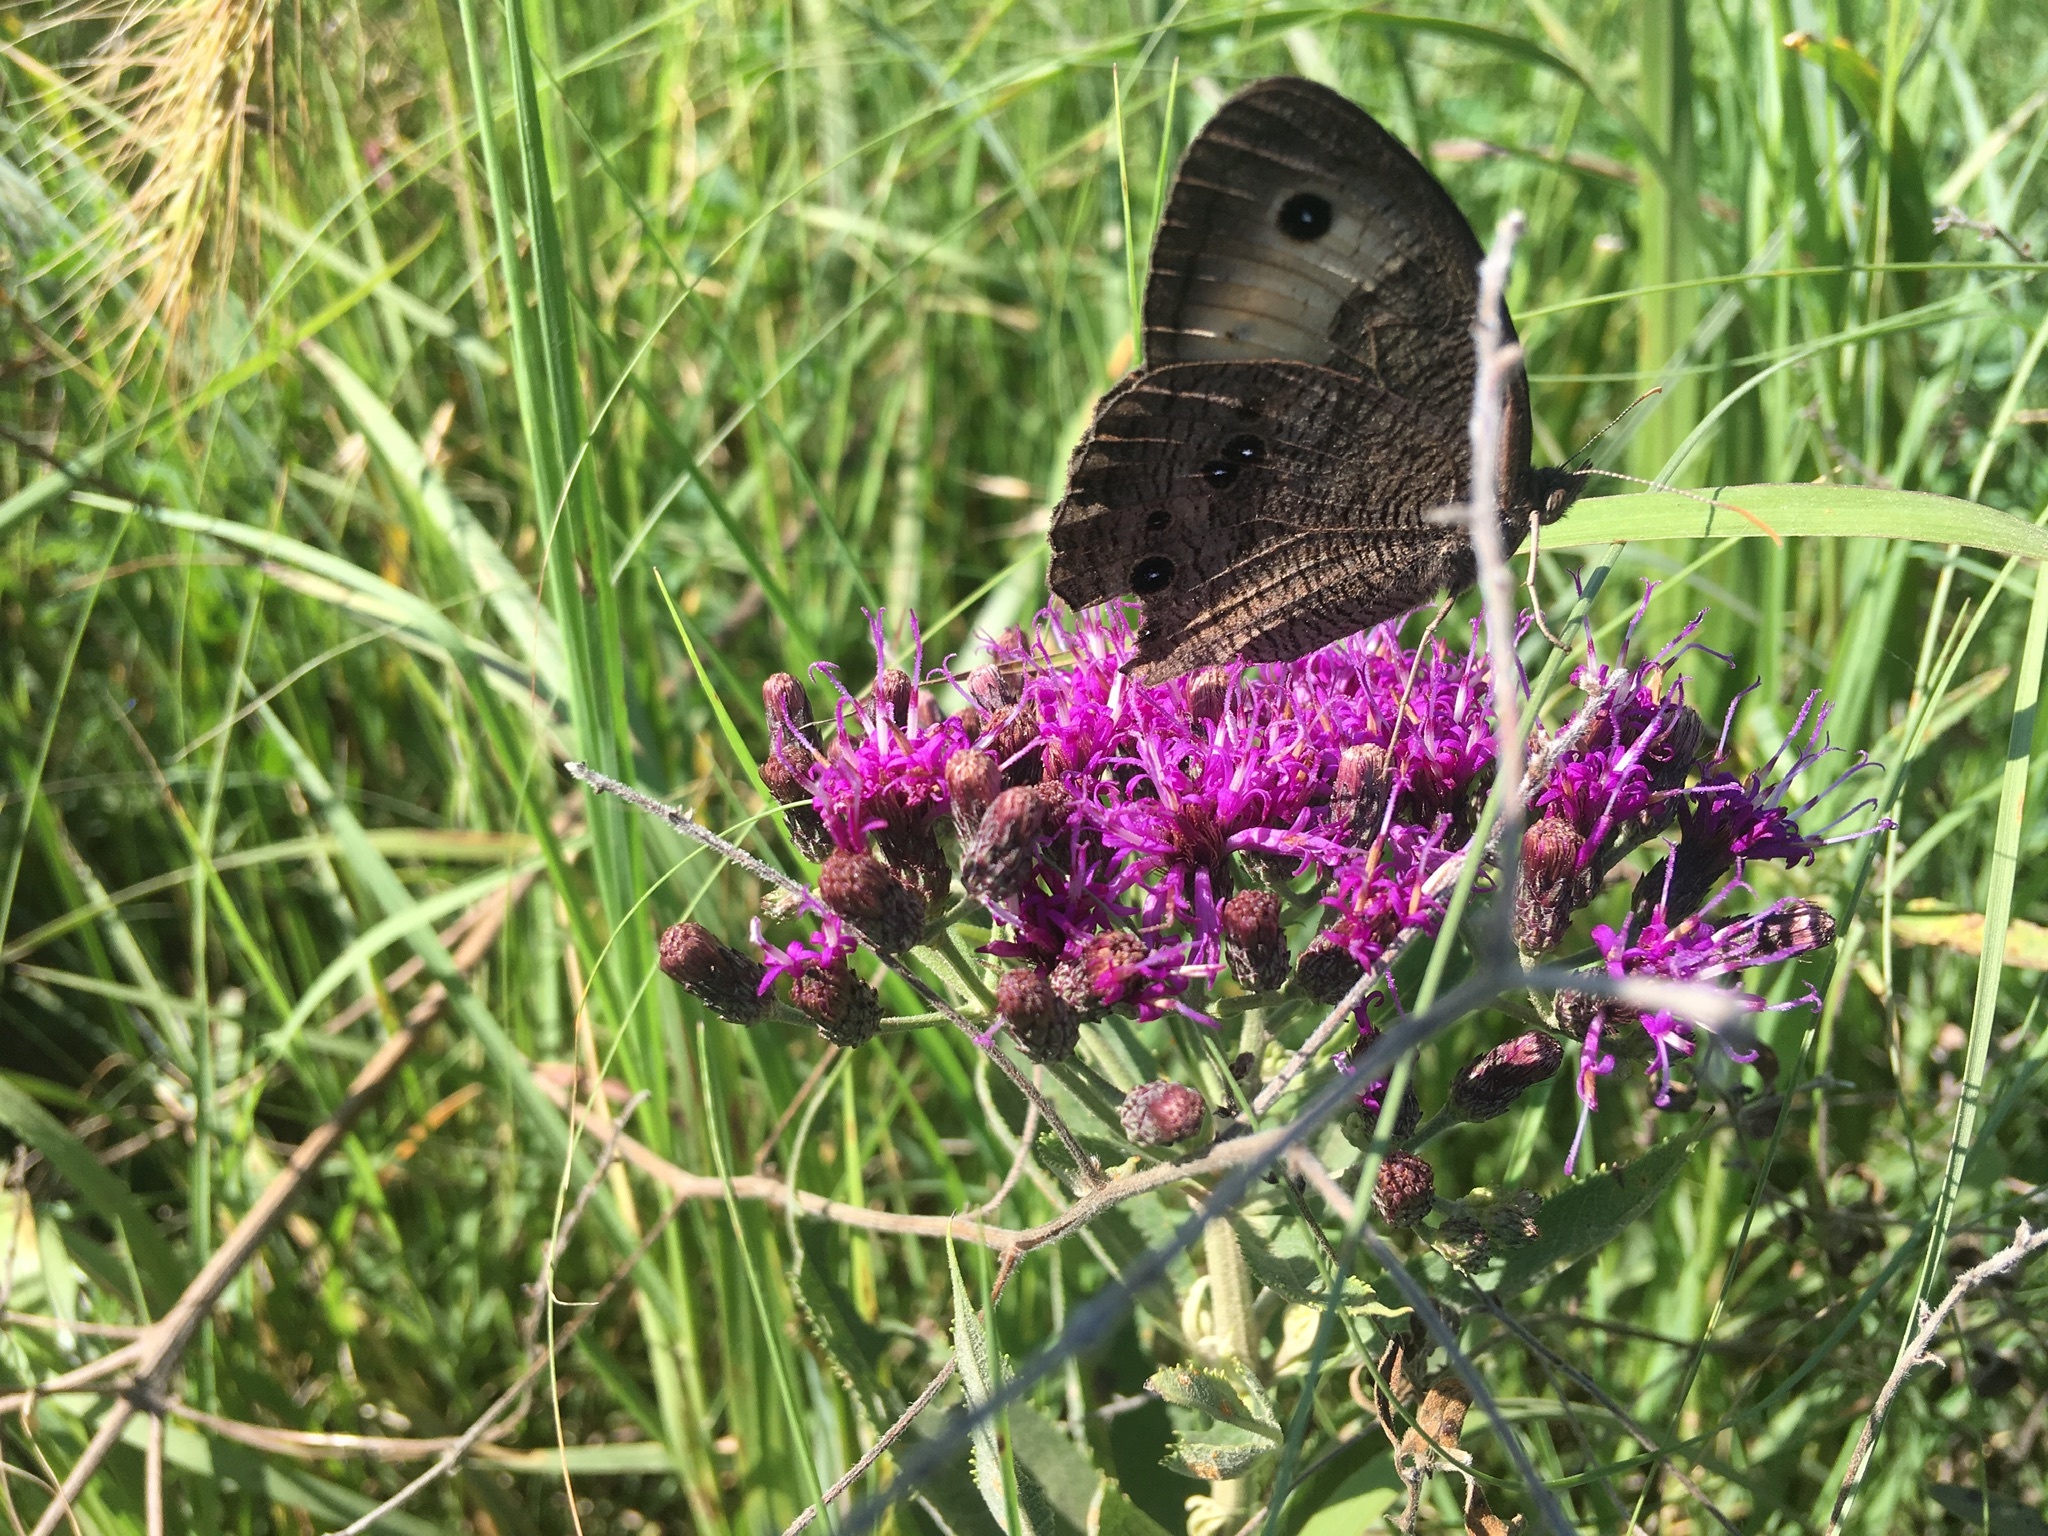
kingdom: Animalia
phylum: Arthropoda
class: Insecta
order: Lepidoptera
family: Nymphalidae
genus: Cercyonis
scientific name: Cercyonis pegala
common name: Common wood-nymph
